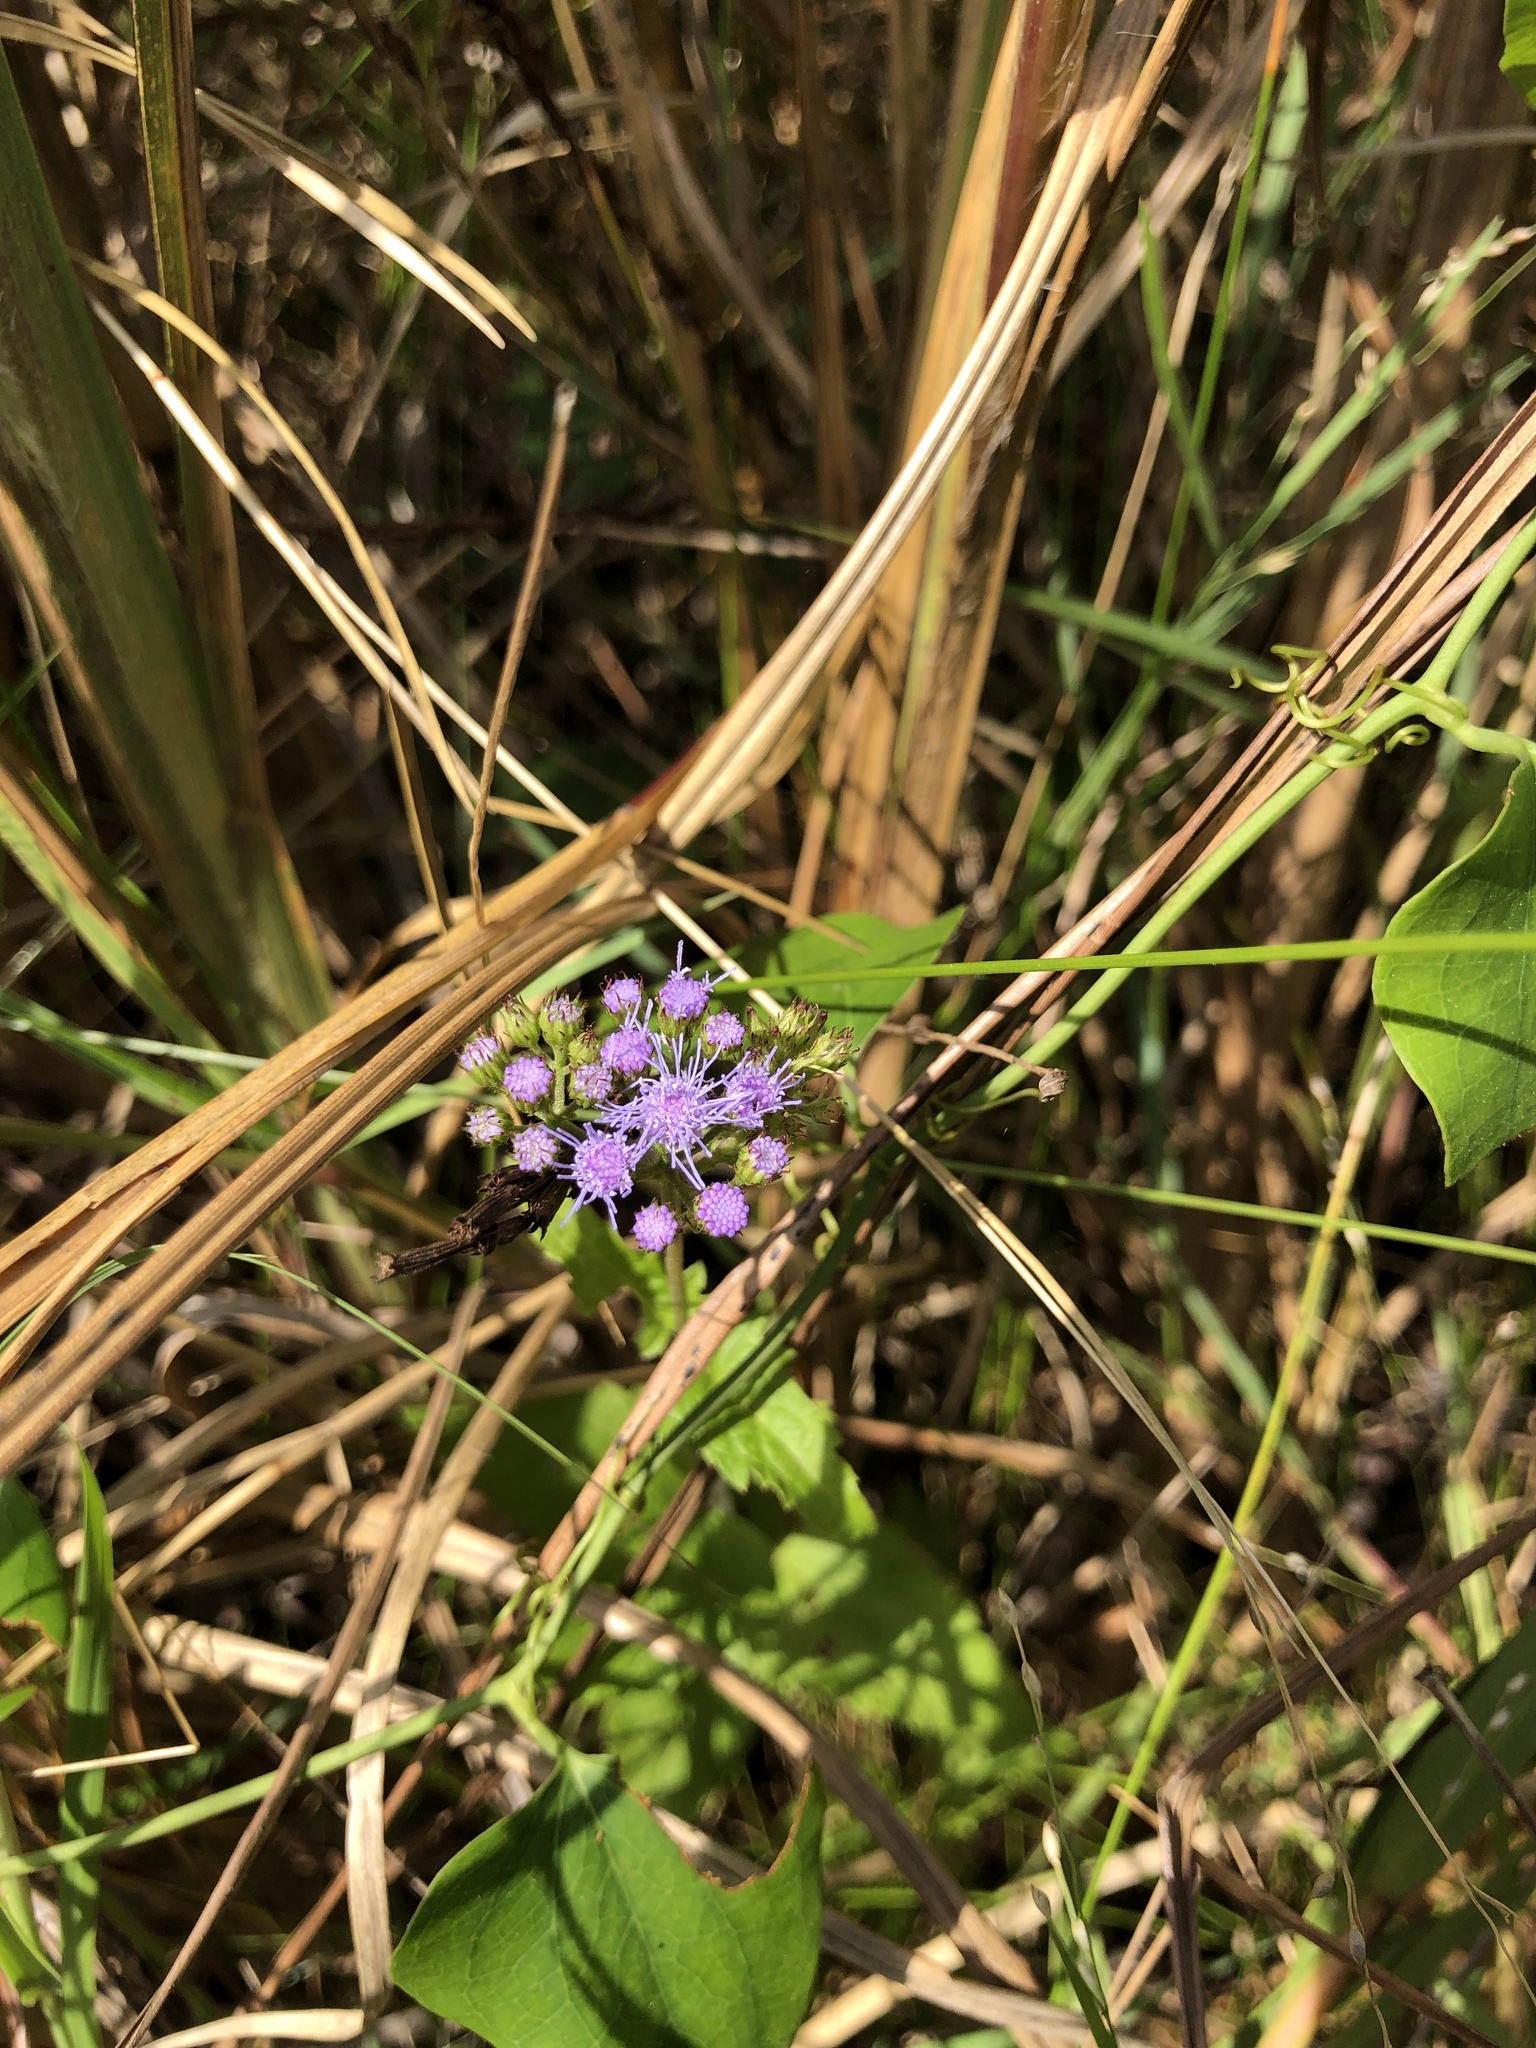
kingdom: Plantae
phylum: Tracheophyta
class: Magnoliopsida
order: Asterales
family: Asteraceae
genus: Conoclinium
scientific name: Conoclinium coelestinum
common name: Blue mistflower
